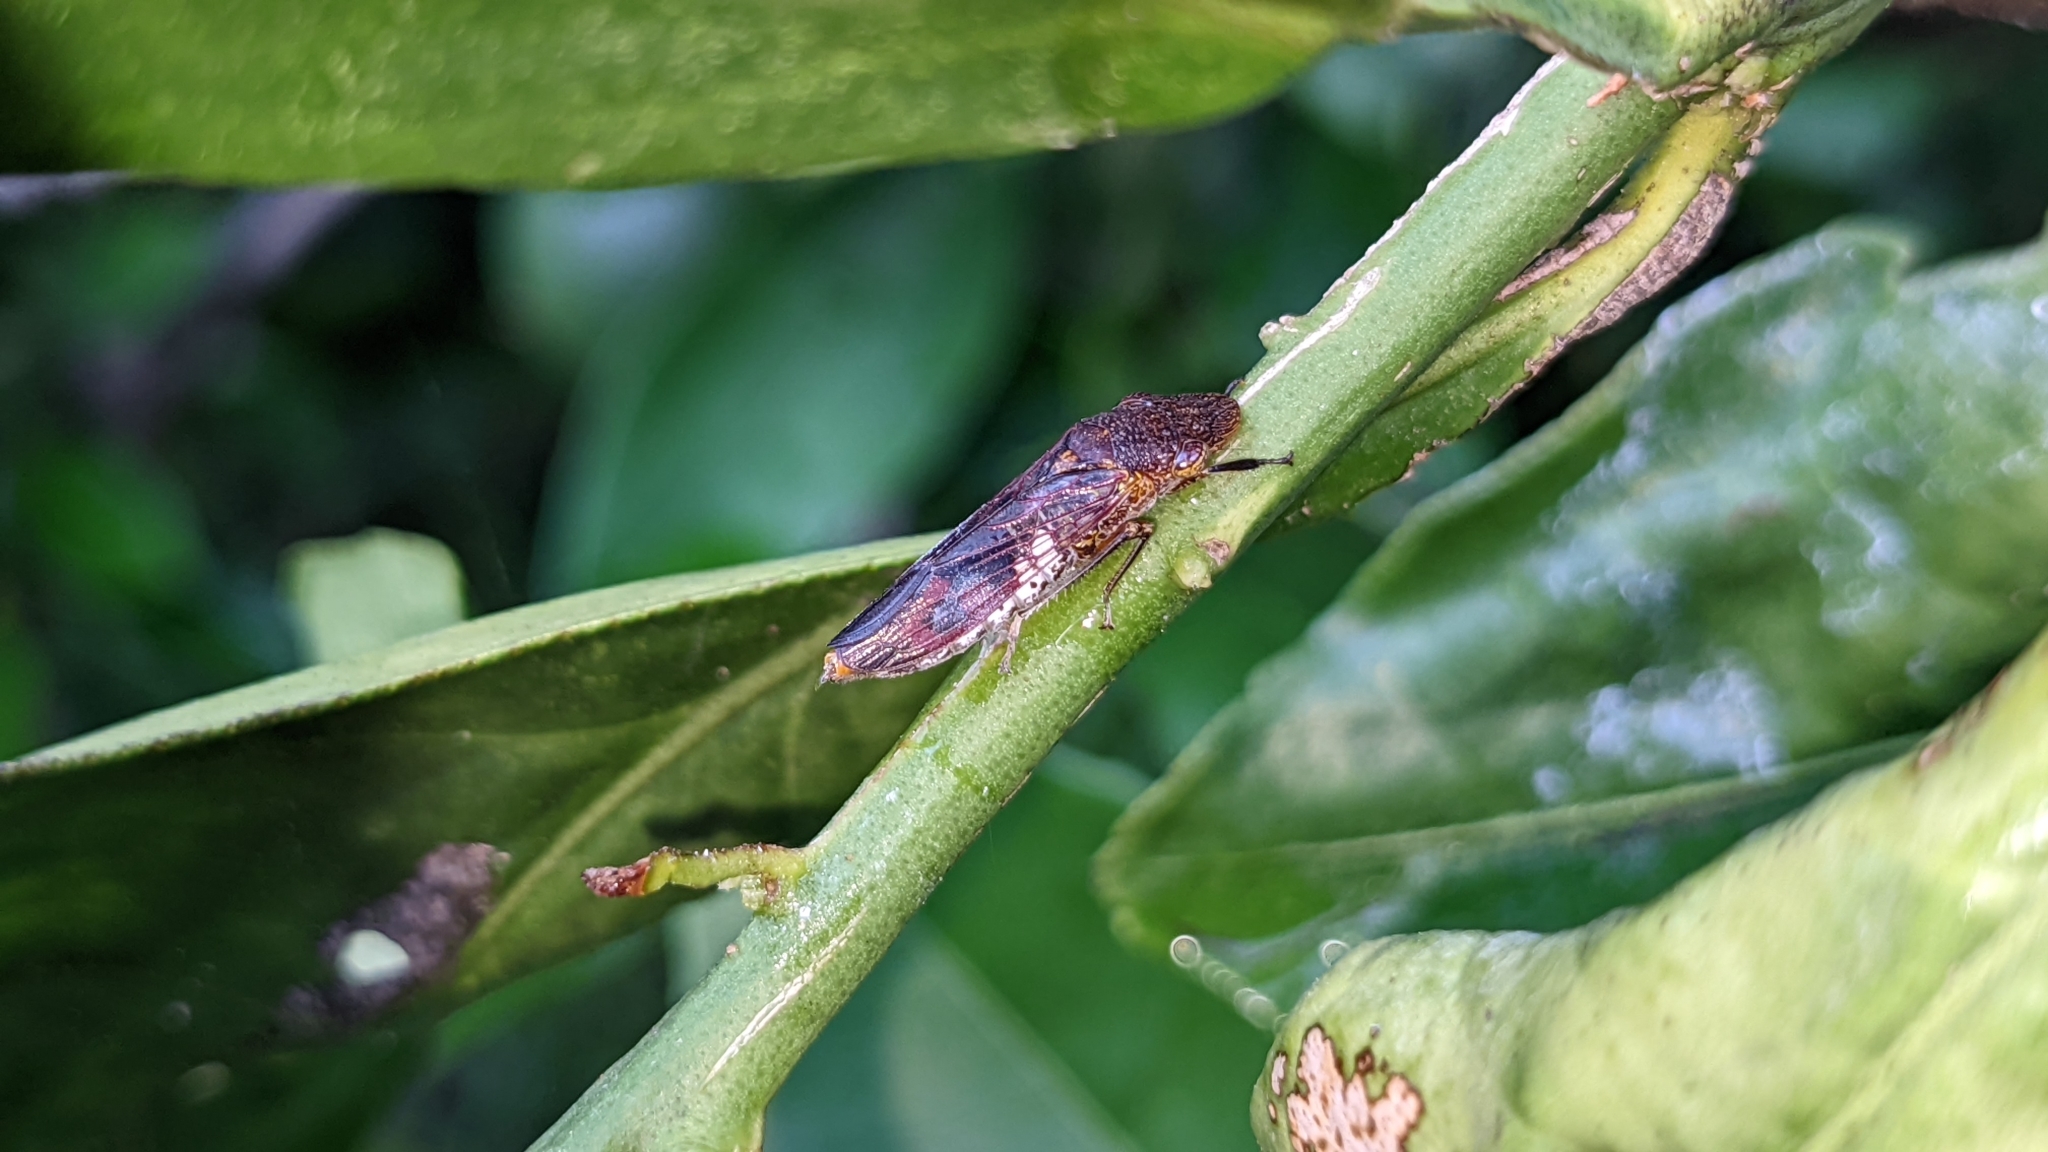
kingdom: Animalia
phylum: Arthropoda
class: Insecta
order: Hemiptera
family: Cicadellidae
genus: Homalodisca
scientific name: Homalodisca vitripennis
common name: Glassy-winged sharpshooter
